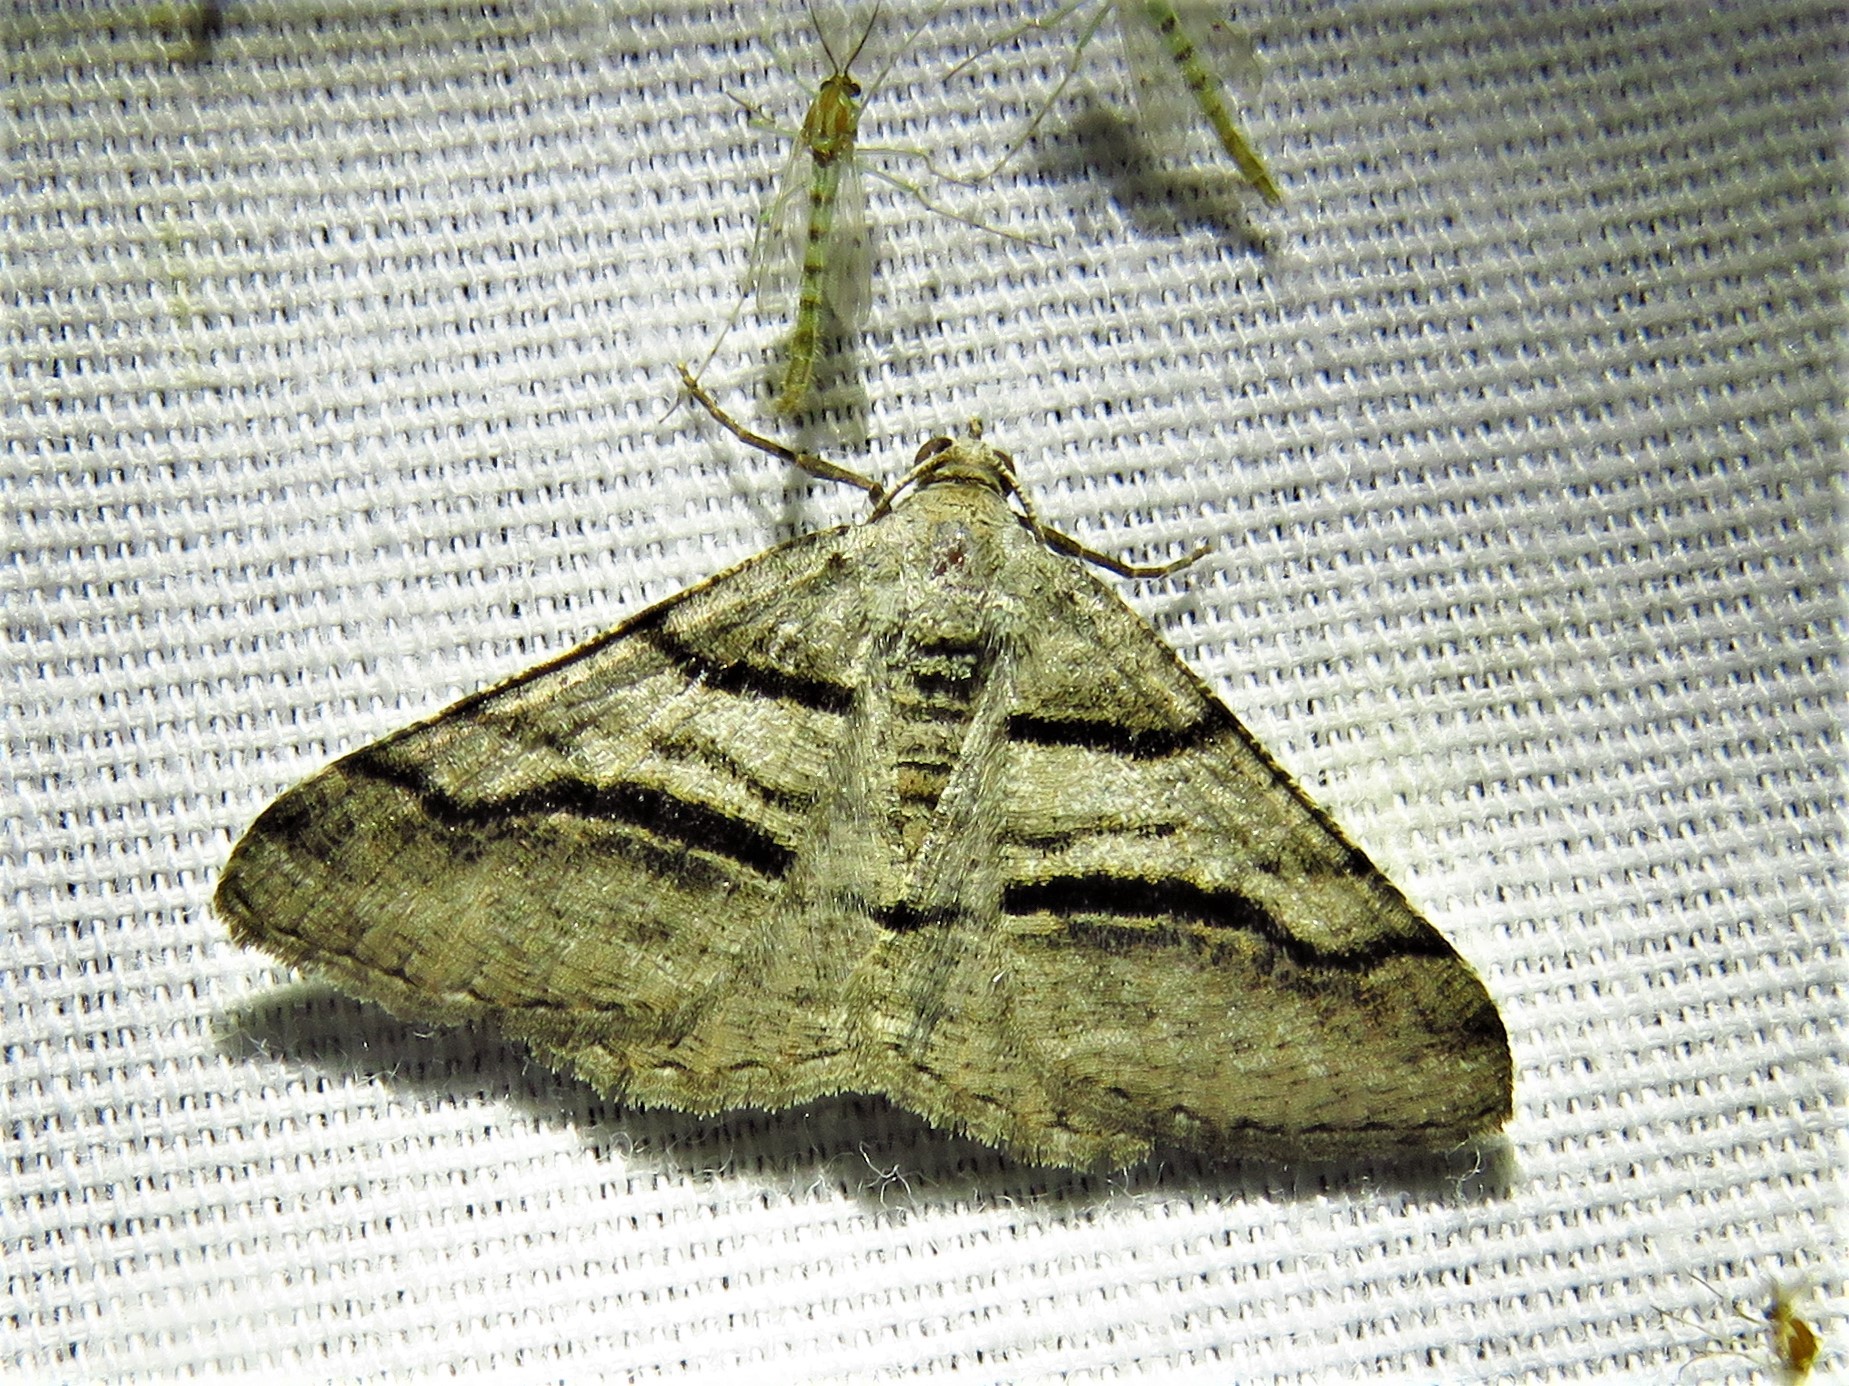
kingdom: Animalia
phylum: Arthropoda
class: Insecta
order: Lepidoptera
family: Geometridae
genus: Digrammia
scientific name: Digrammia continuata
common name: Curve-lined angle
